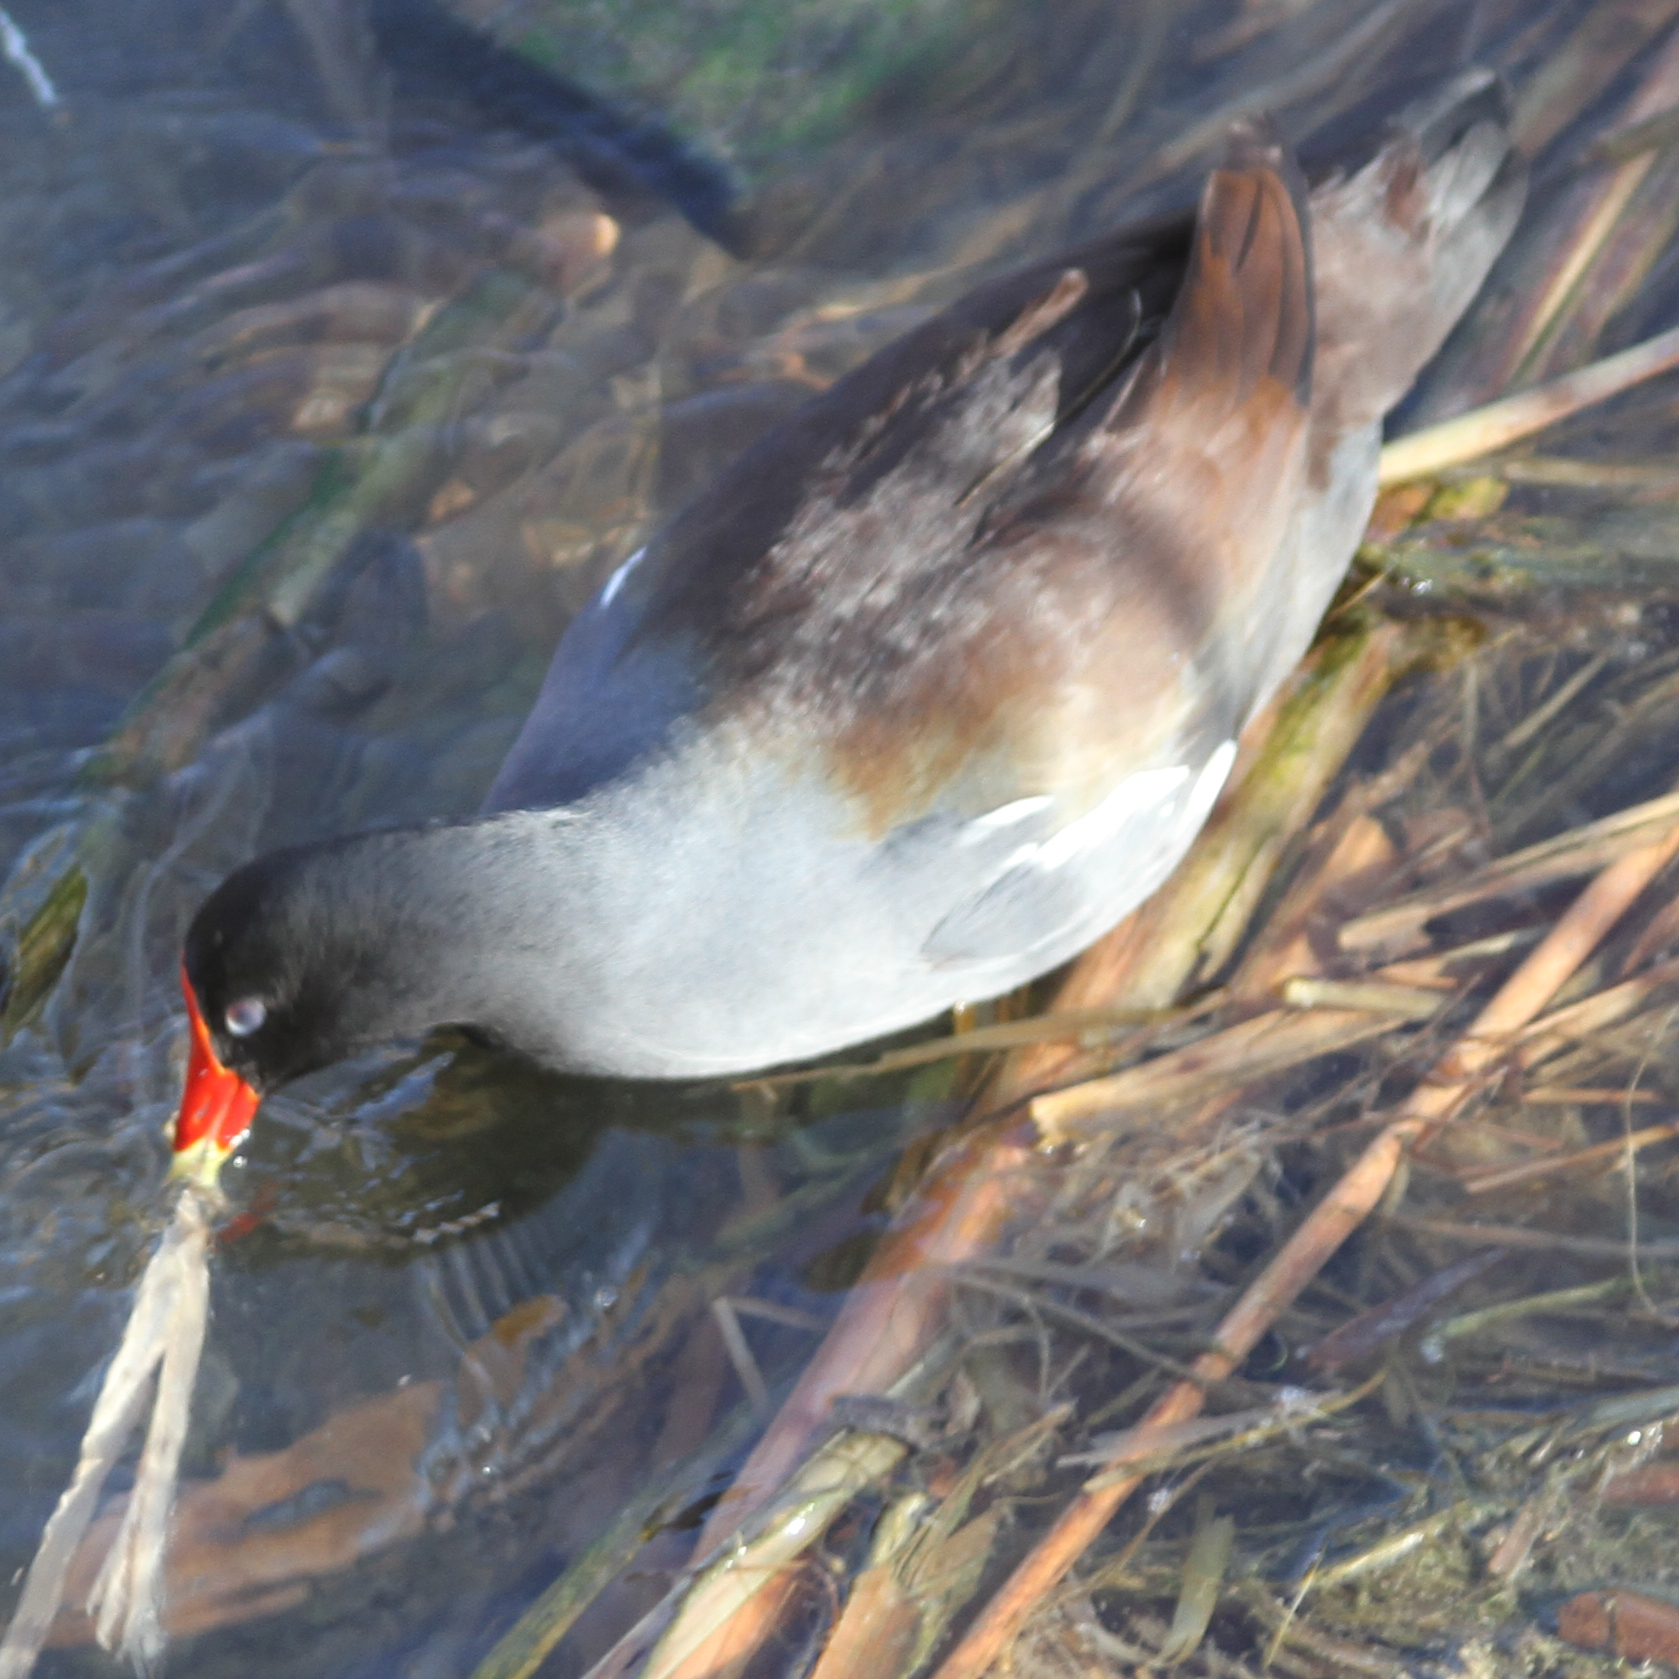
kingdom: Animalia
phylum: Chordata
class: Aves
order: Gruiformes
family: Rallidae
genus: Gallinula
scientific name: Gallinula chloropus
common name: Common moorhen
